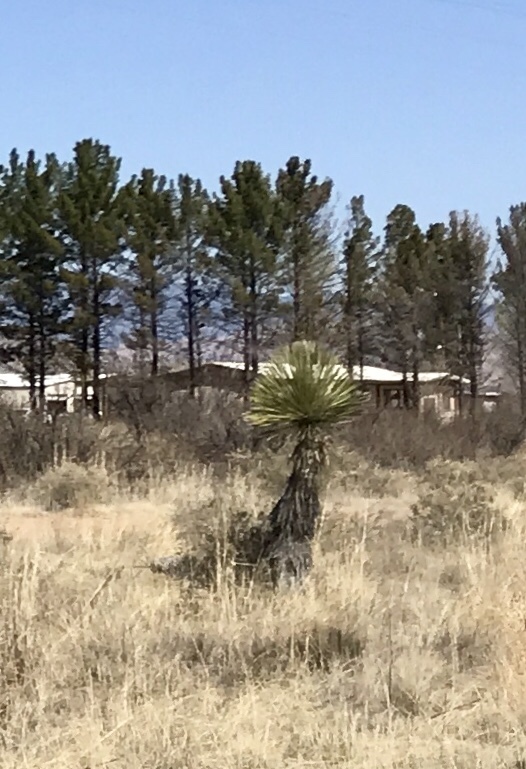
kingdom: Plantae
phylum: Tracheophyta
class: Liliopsida
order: Asparagales
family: Asparagaceae
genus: Yucca
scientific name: Yucca elata
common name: Palmella
